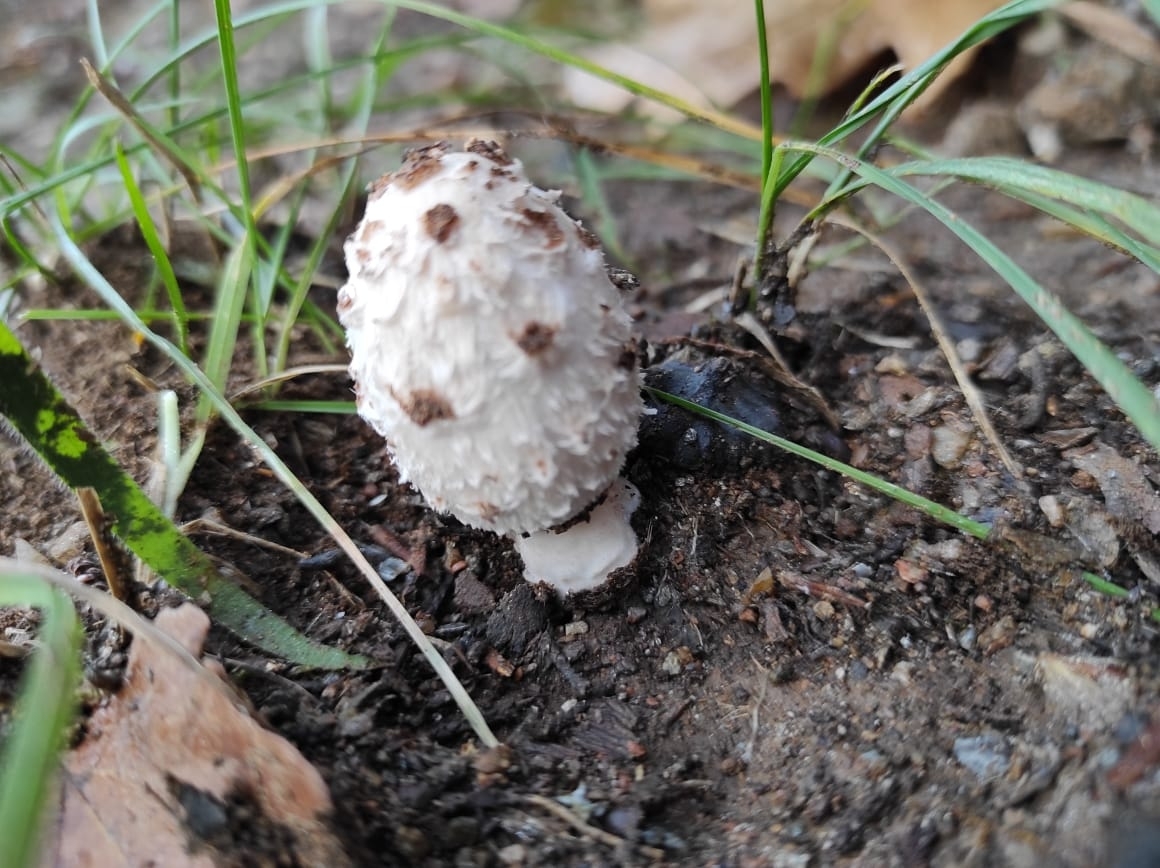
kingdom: Fungi
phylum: Basidiomycota
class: Agaricomycetes
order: Agaricales
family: Agaricaceae
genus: Coprinus
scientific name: Coprinus comatus
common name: Lawyer's wig
